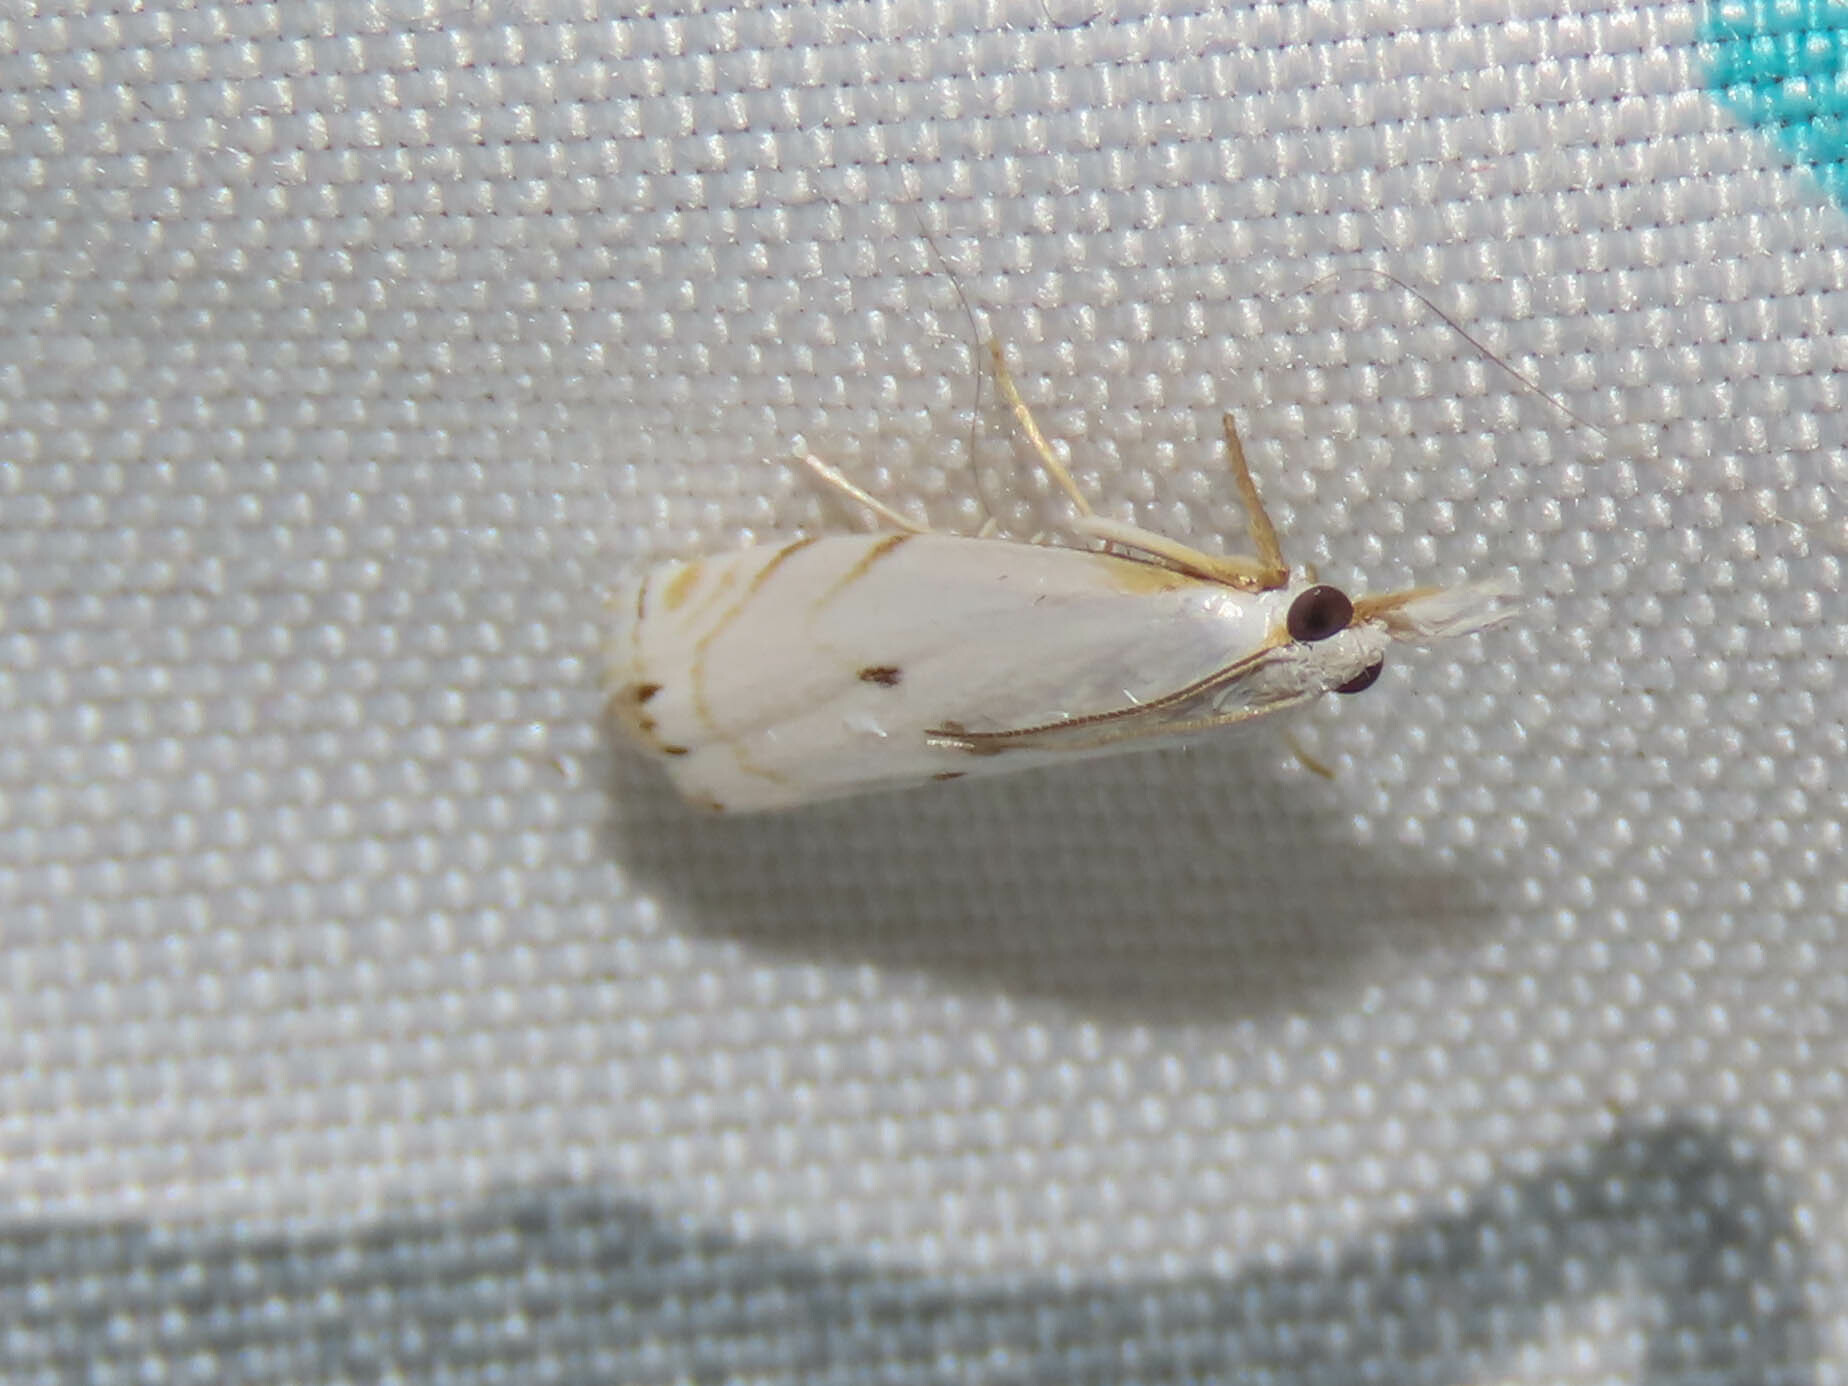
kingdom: Animalia
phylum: Arthropoda
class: Insecta
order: Lepidoptera
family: Crambidae
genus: Microcrambus
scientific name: Microcrambus biguttellus
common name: Gold-stripe grass-veneer moth
